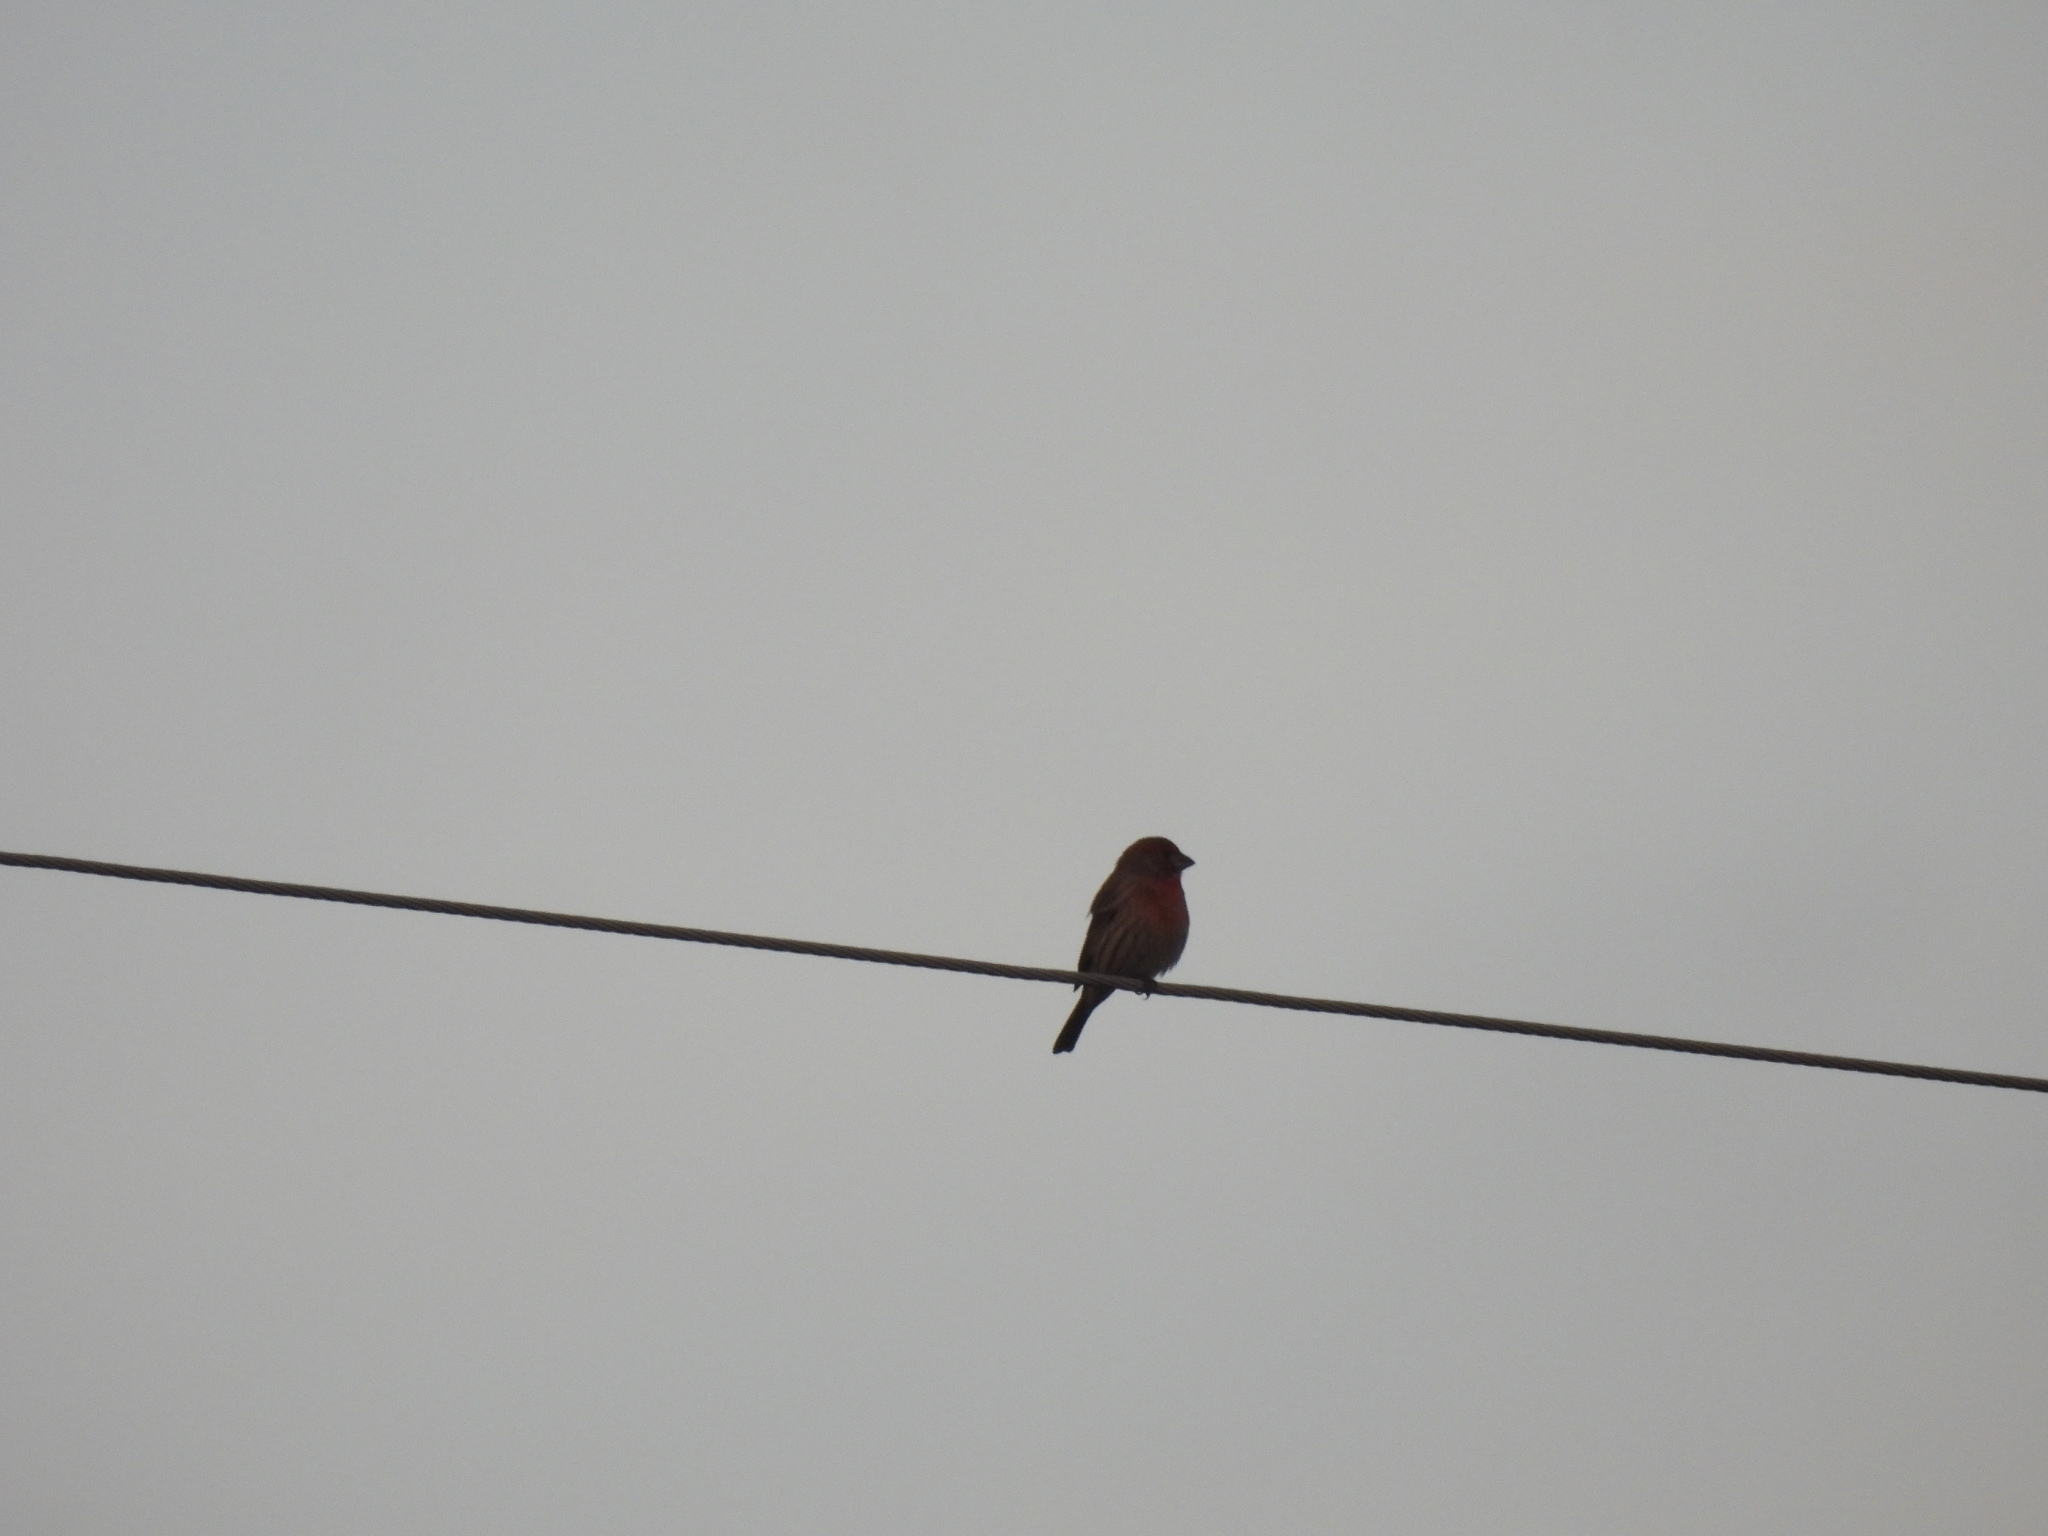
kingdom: Animalia
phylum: Chordata
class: Aves
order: Passeriformes
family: Fringillidae
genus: Haemorhous
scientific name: Haemorhous mexicanus
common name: House finch
